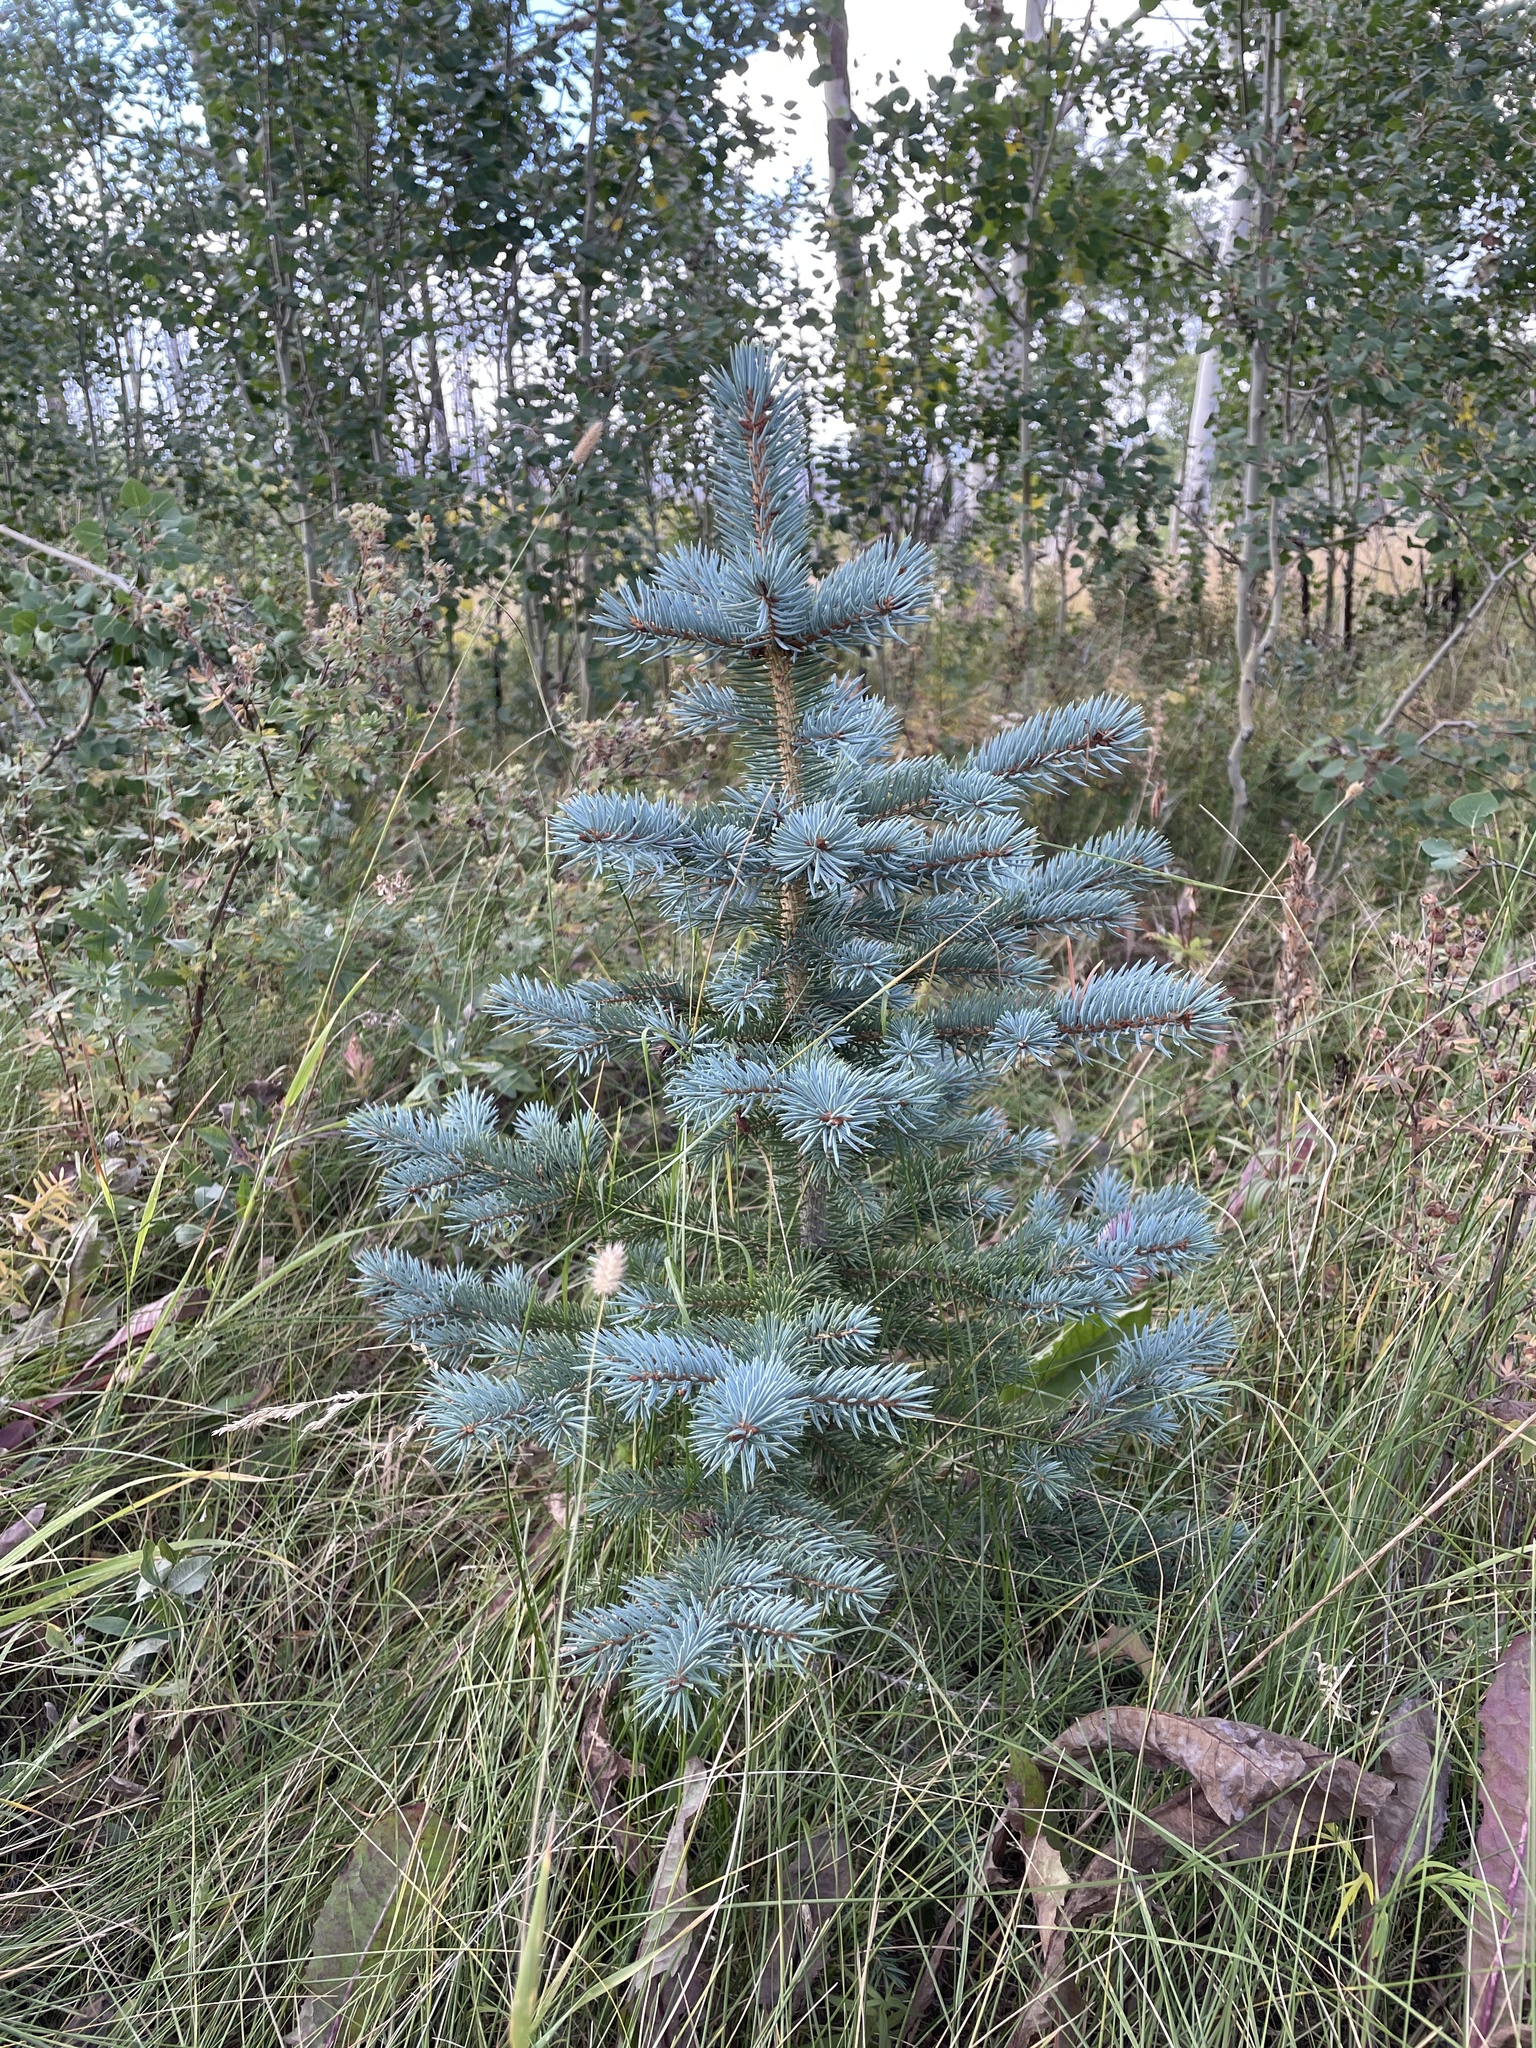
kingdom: Plantae
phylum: Tracheophyta
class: Pinopsida
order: Pinales
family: Pinaceae
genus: Picea
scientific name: Picea pungens
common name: Colorado spruce
